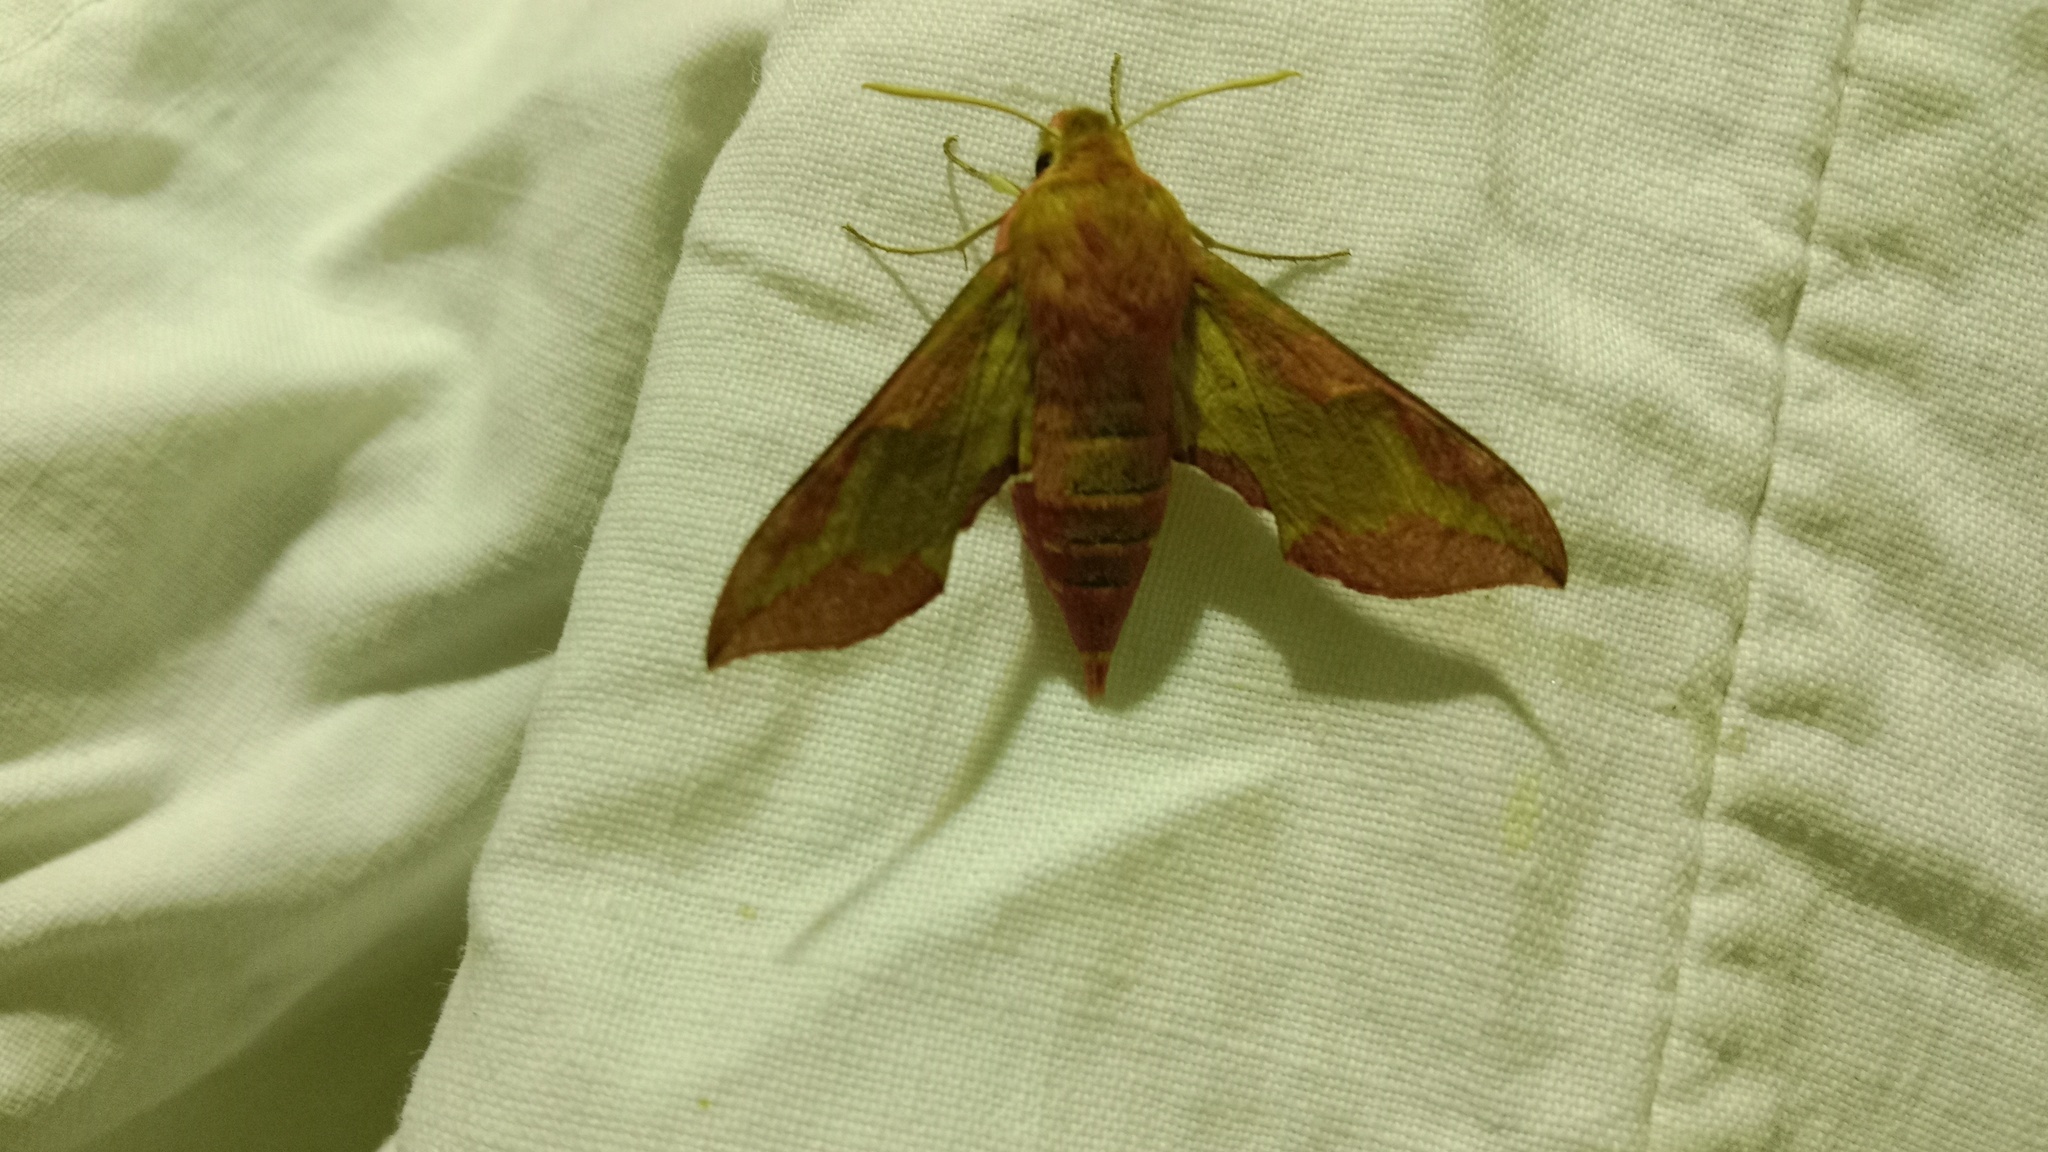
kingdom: Animalia
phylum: Arthropoda
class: Insecta
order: Lepidoptera
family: Sphingidae
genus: Deilephila
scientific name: Deilephila porcellus
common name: Small elephant hawk-moth
